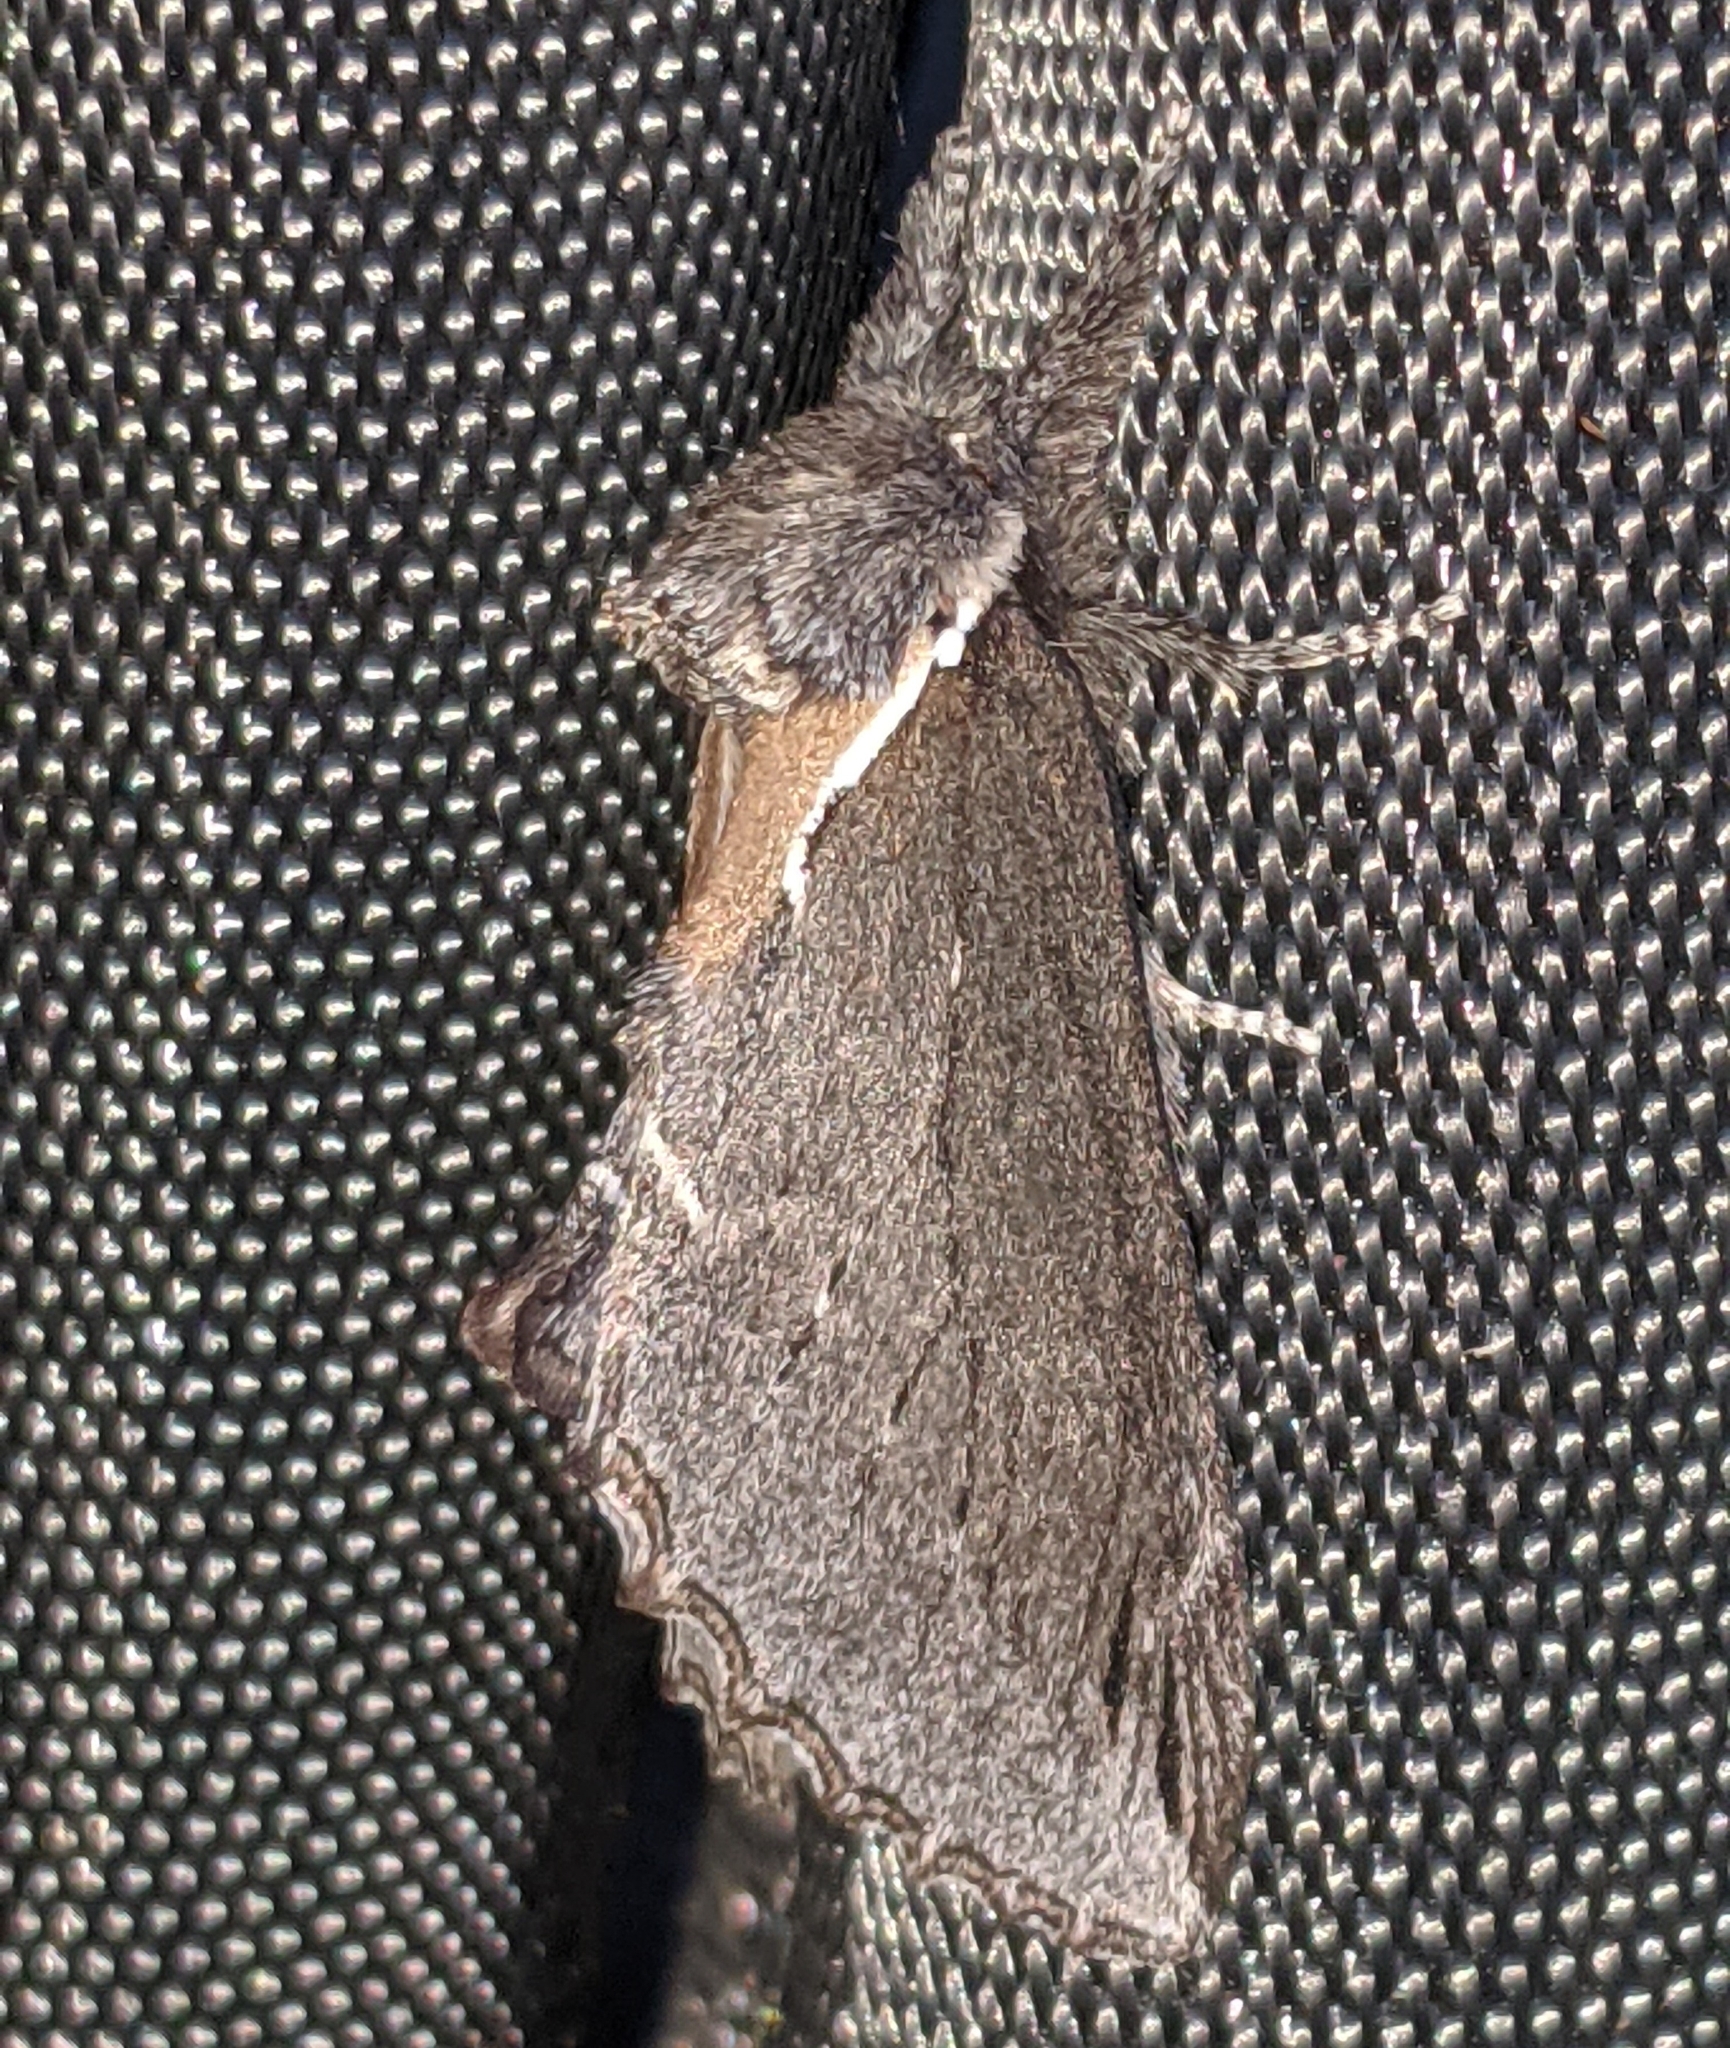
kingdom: Animalia
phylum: Arthropoda
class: Insecta
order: Lepidoptera
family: Notodontidae
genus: Pheosidea
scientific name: Pheosidea elegans
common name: Elegant prominent
